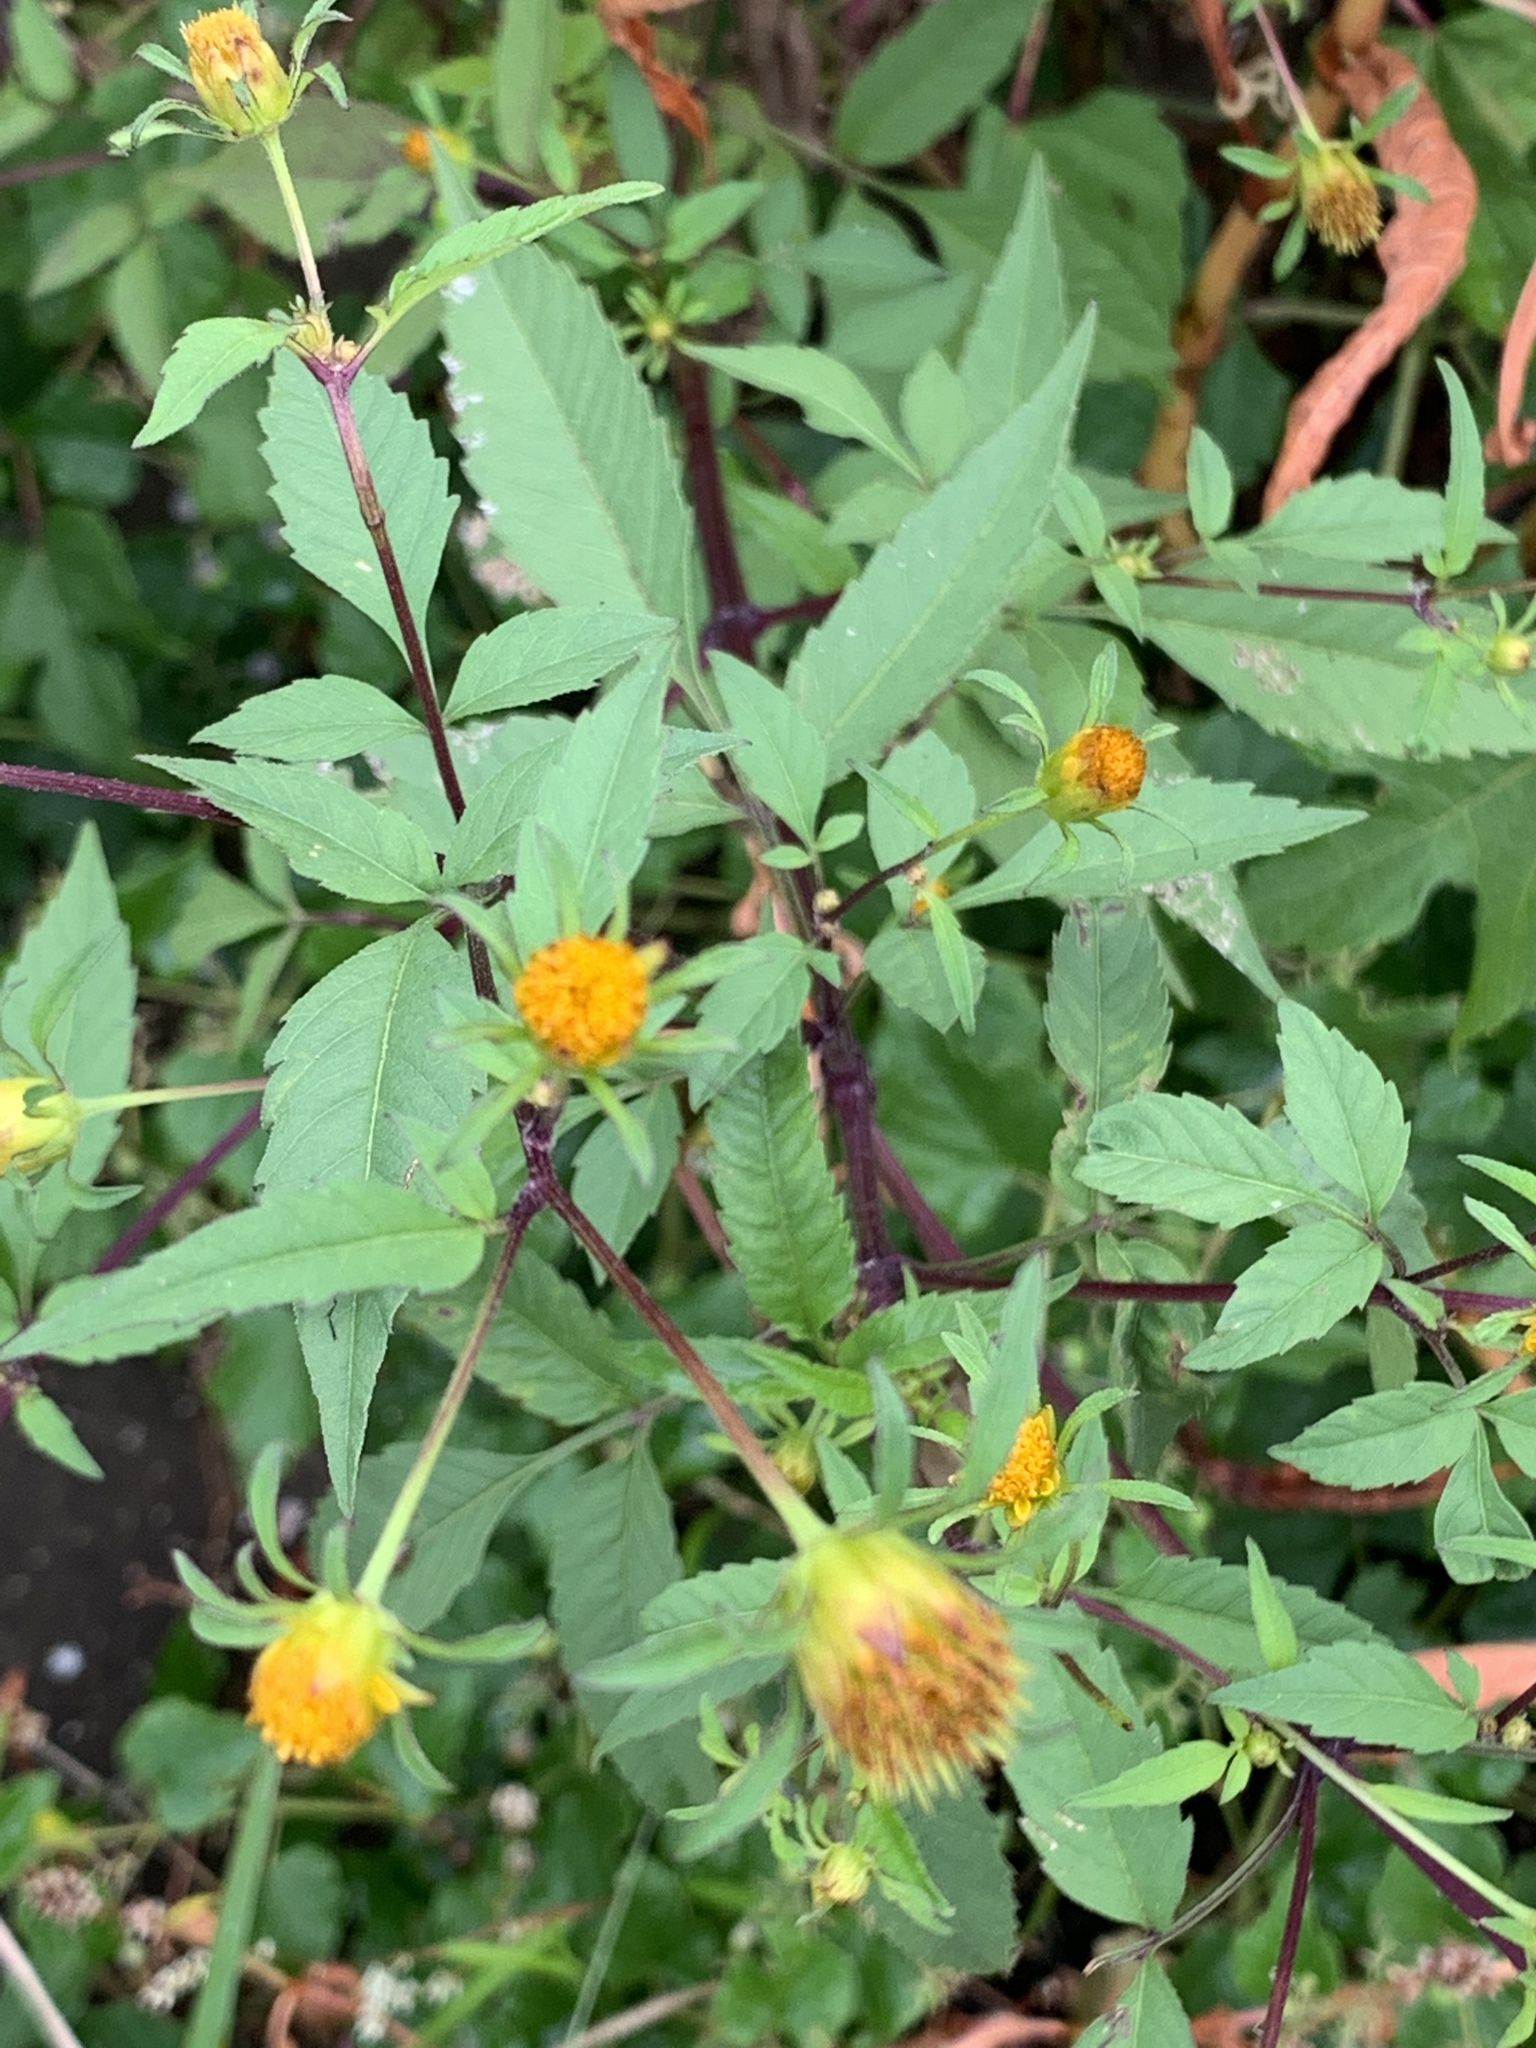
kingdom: Plantae
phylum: Tracheophyta
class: Magnoliopsida
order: Asterales
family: Asteraceae
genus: Bidens
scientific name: Bidens frondosa
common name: Beggarticks
